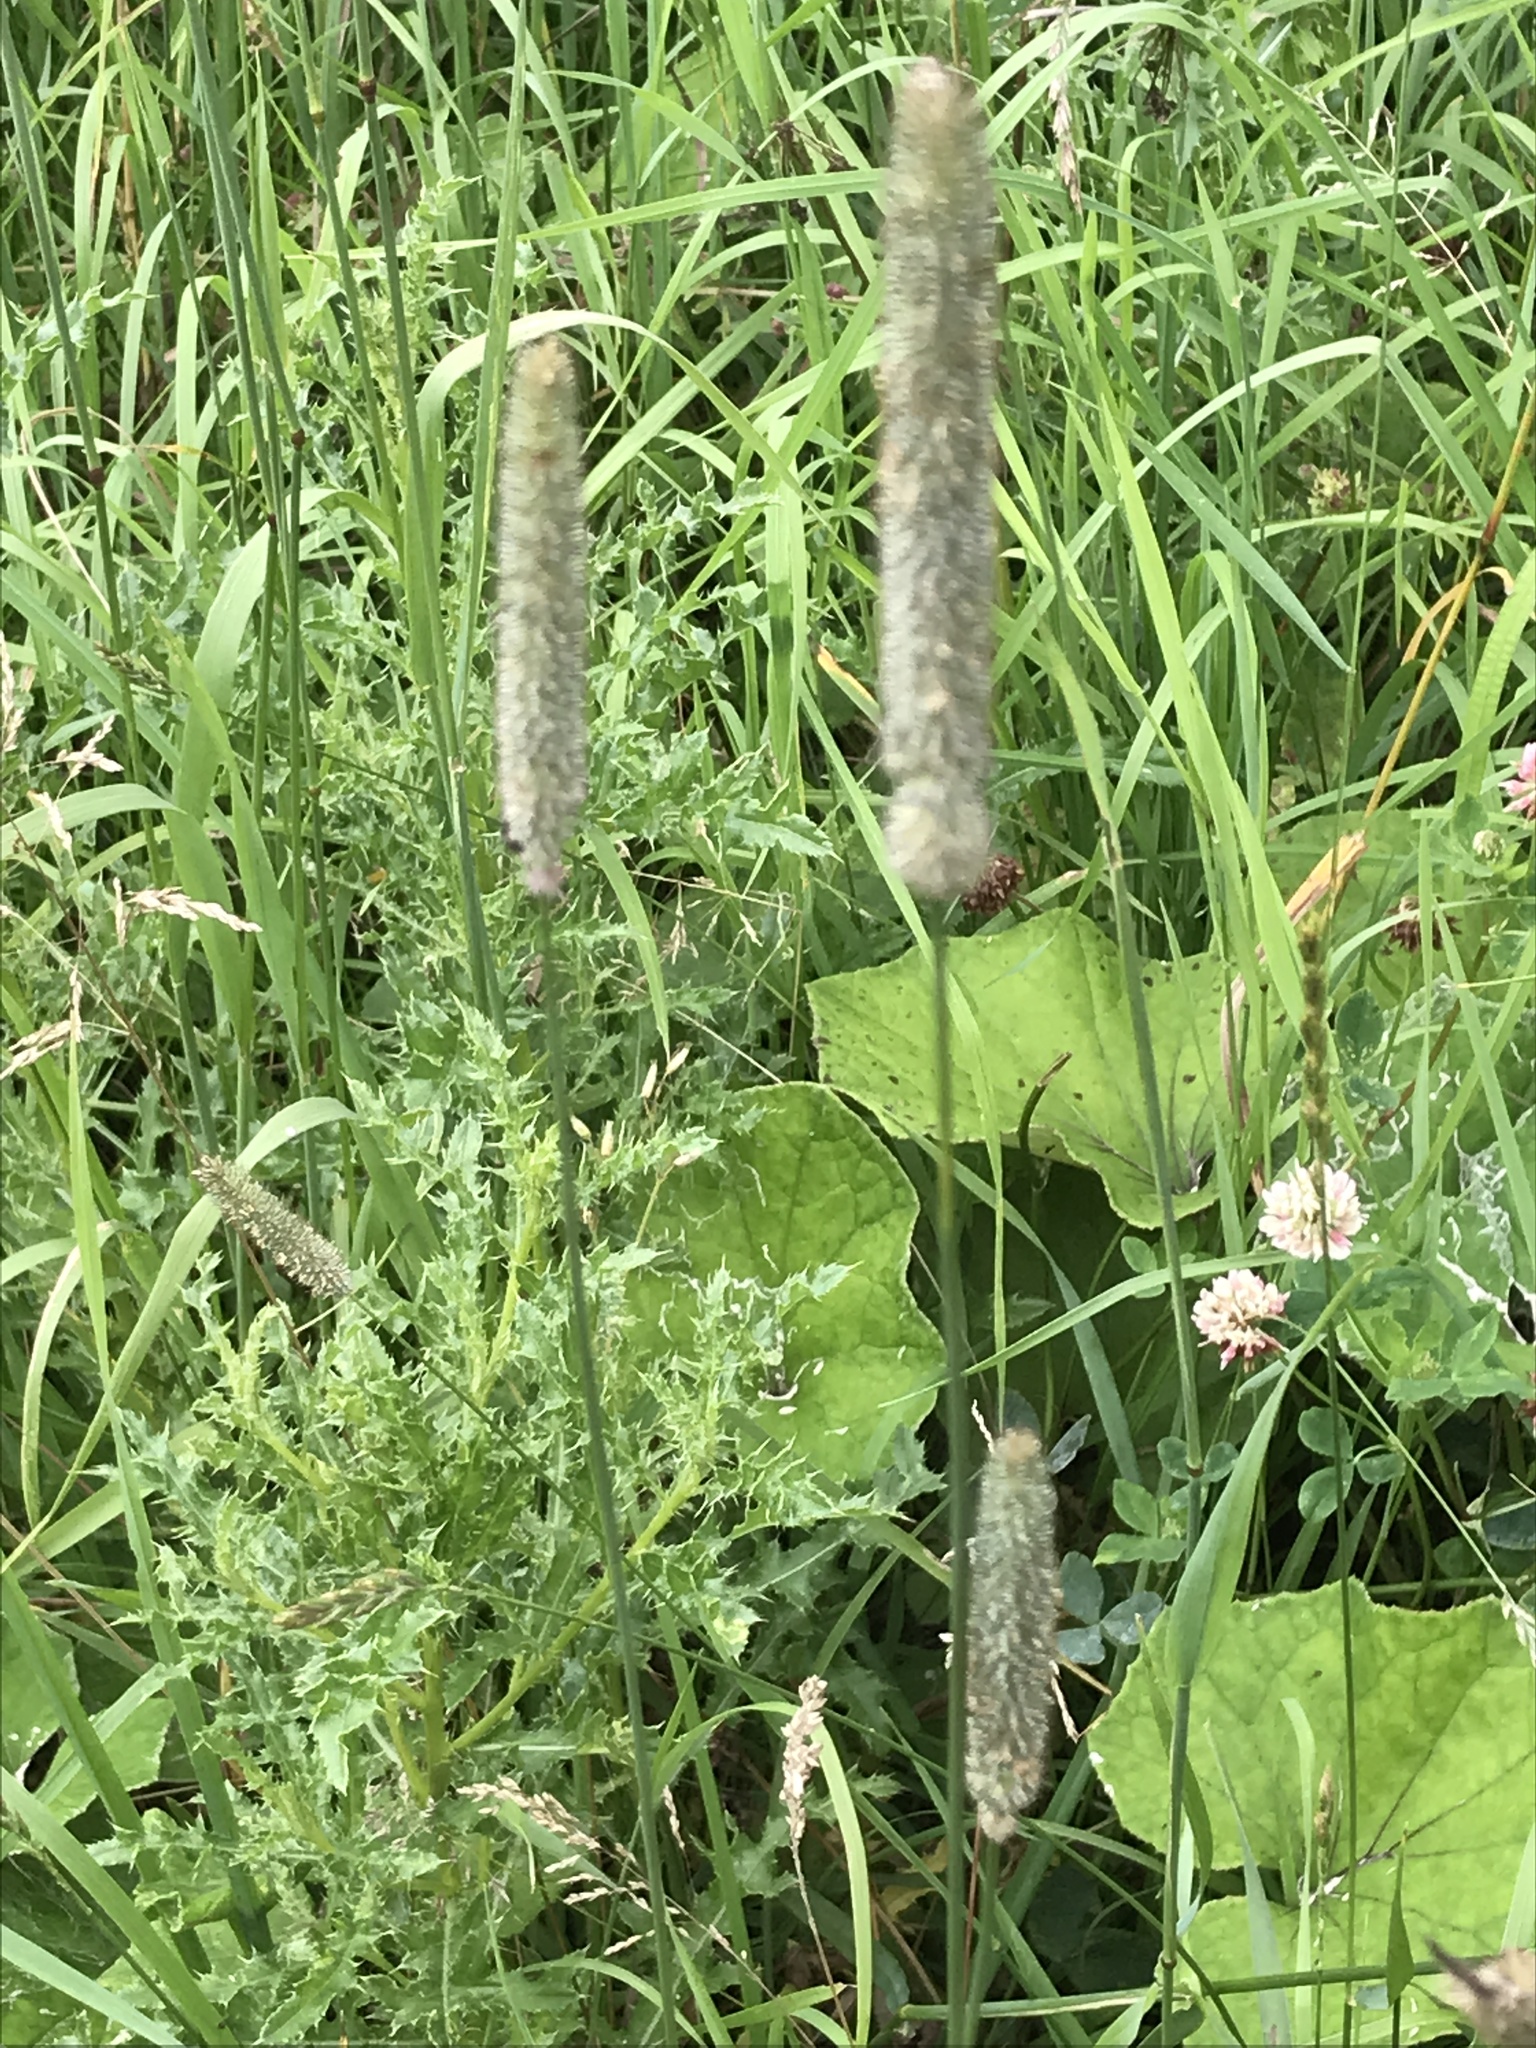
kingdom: Plantae
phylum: Tracheophyta
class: Liliopsida
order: Poales
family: Poaceae
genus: Phleum
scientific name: Phleum pratense
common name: Timothy grass
